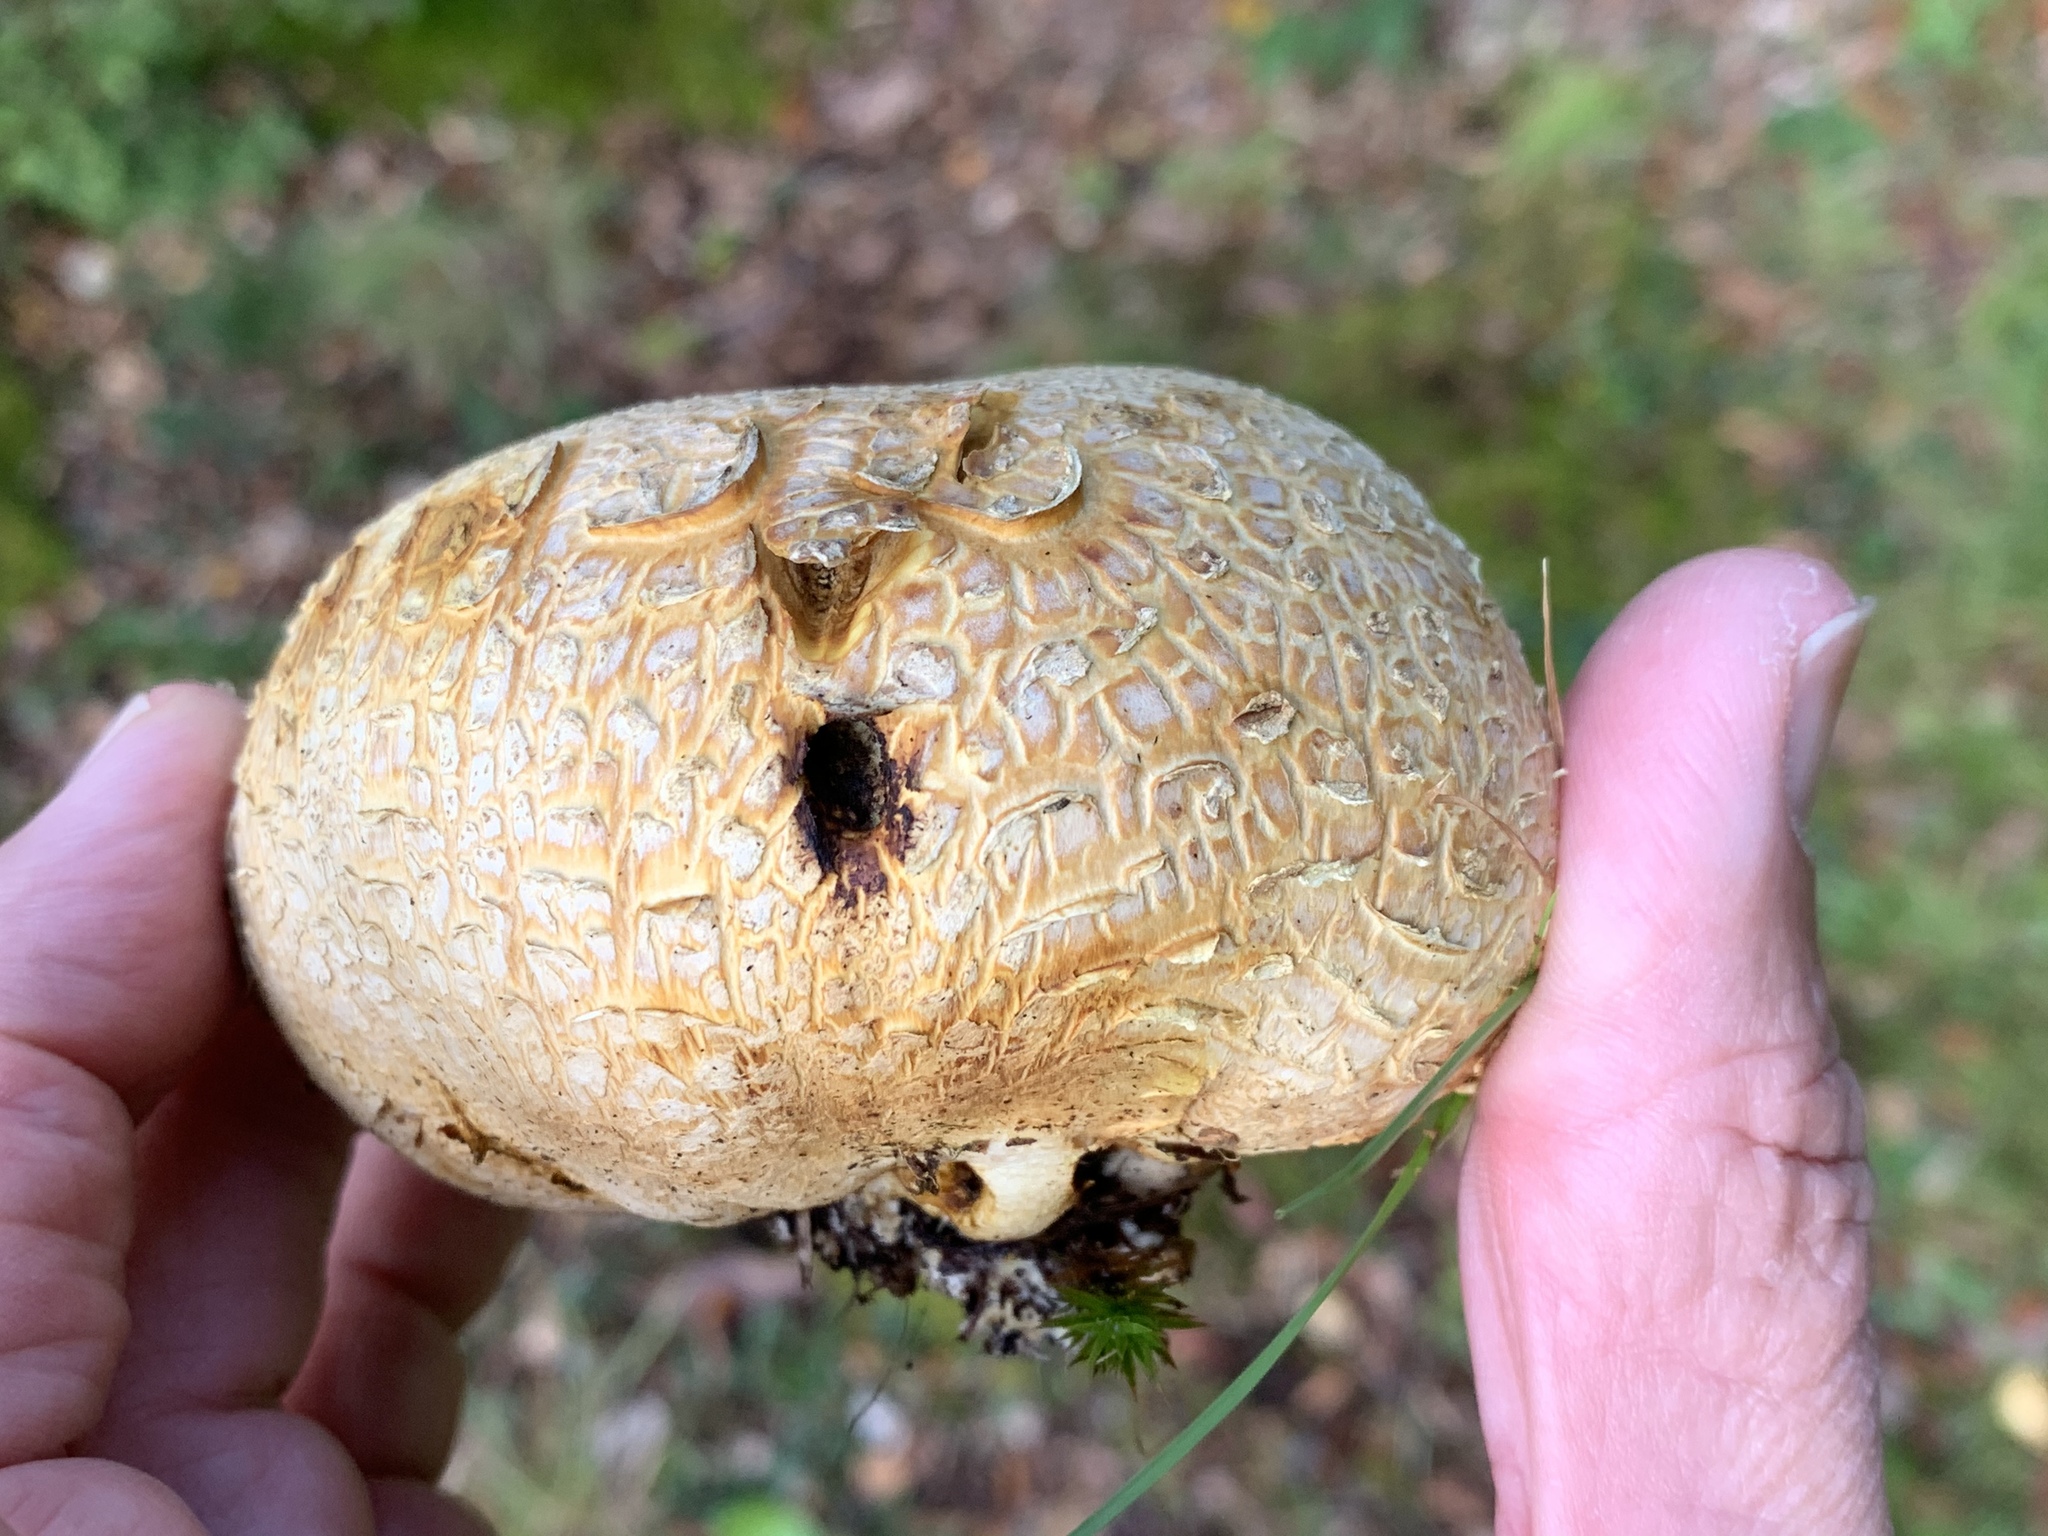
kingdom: Fungi
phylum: Basidiomycota
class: Agaricomycetes
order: Boletales
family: Sclerodermataceae
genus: Scleroderma
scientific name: Scleroderma citrinum
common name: Common earthball
